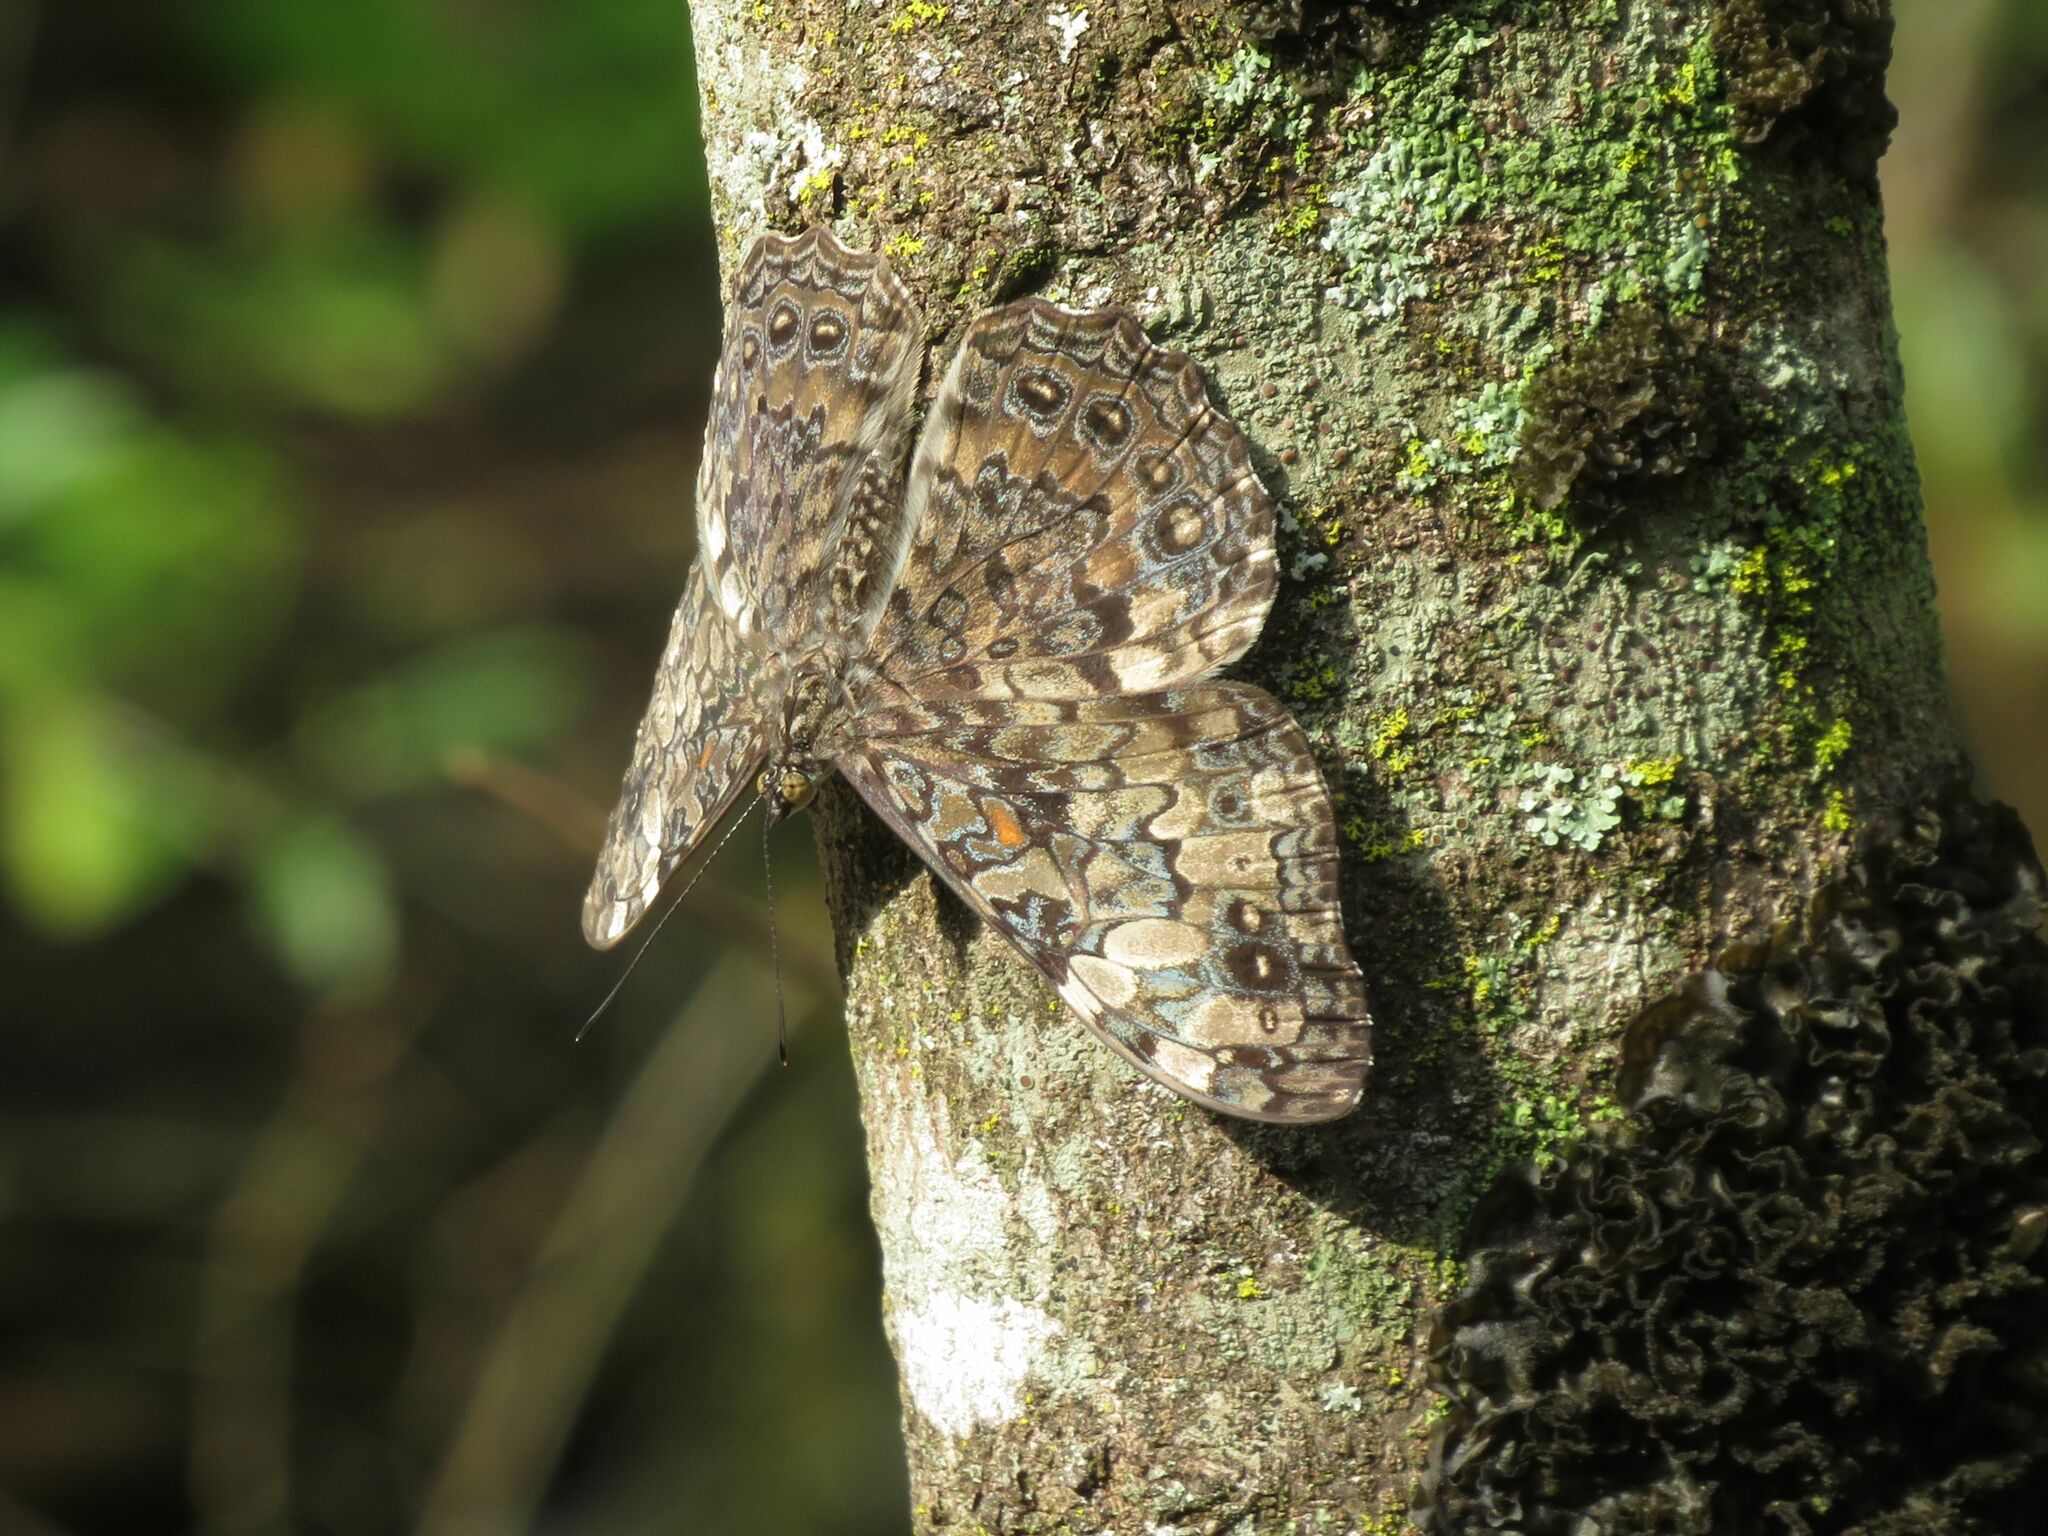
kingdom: Animalia
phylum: Arthropoda
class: Insecta
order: Lepidoptera
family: Nymphalidae
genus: Hamadryas
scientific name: Hamadryas epinome
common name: Epinome cracker
